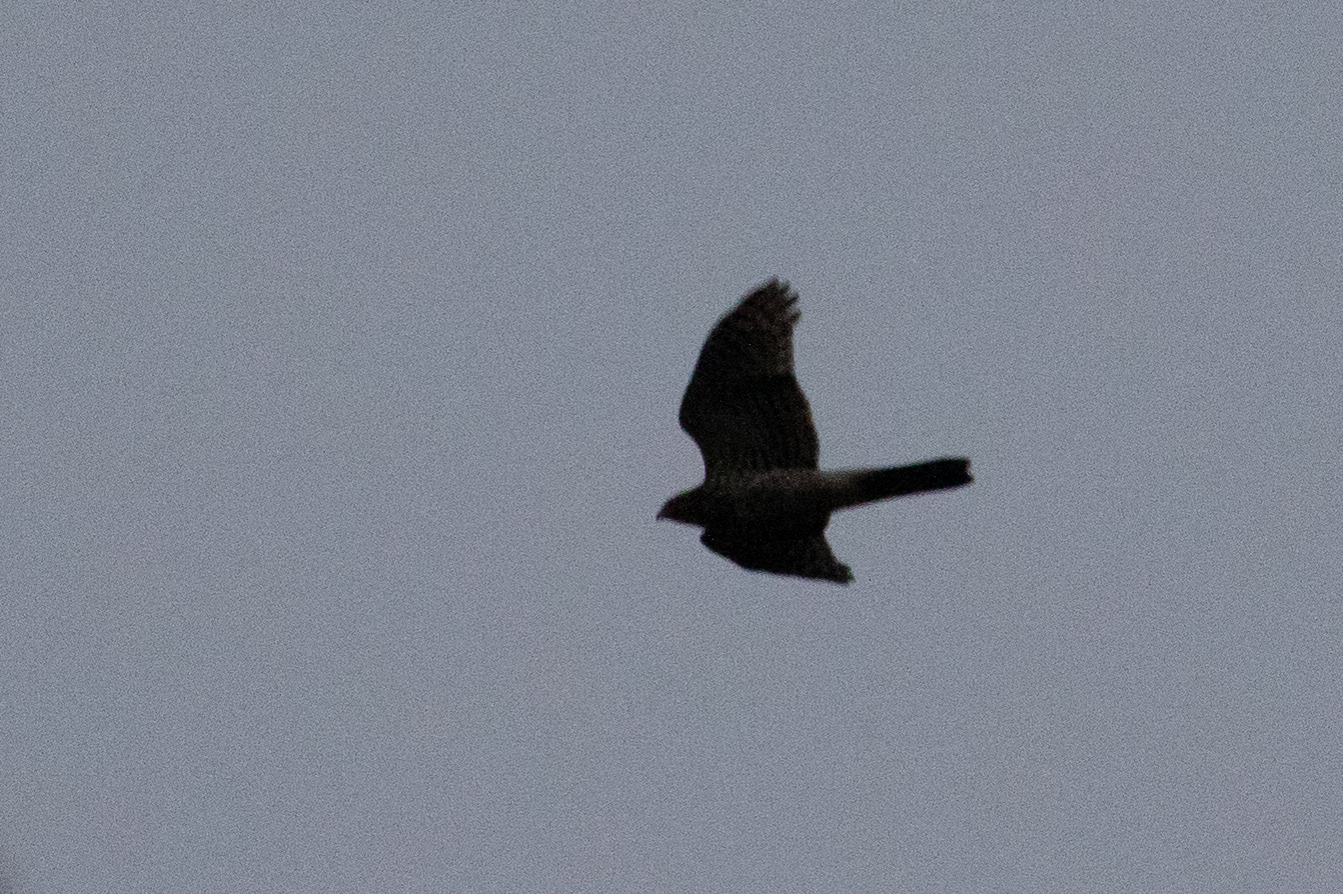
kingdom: Animalia
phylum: Chordata
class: Aves
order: Accipitriformes
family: Accipitridae
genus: Accipiter
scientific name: Accipiter cooperii
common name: Cooper's hawk
